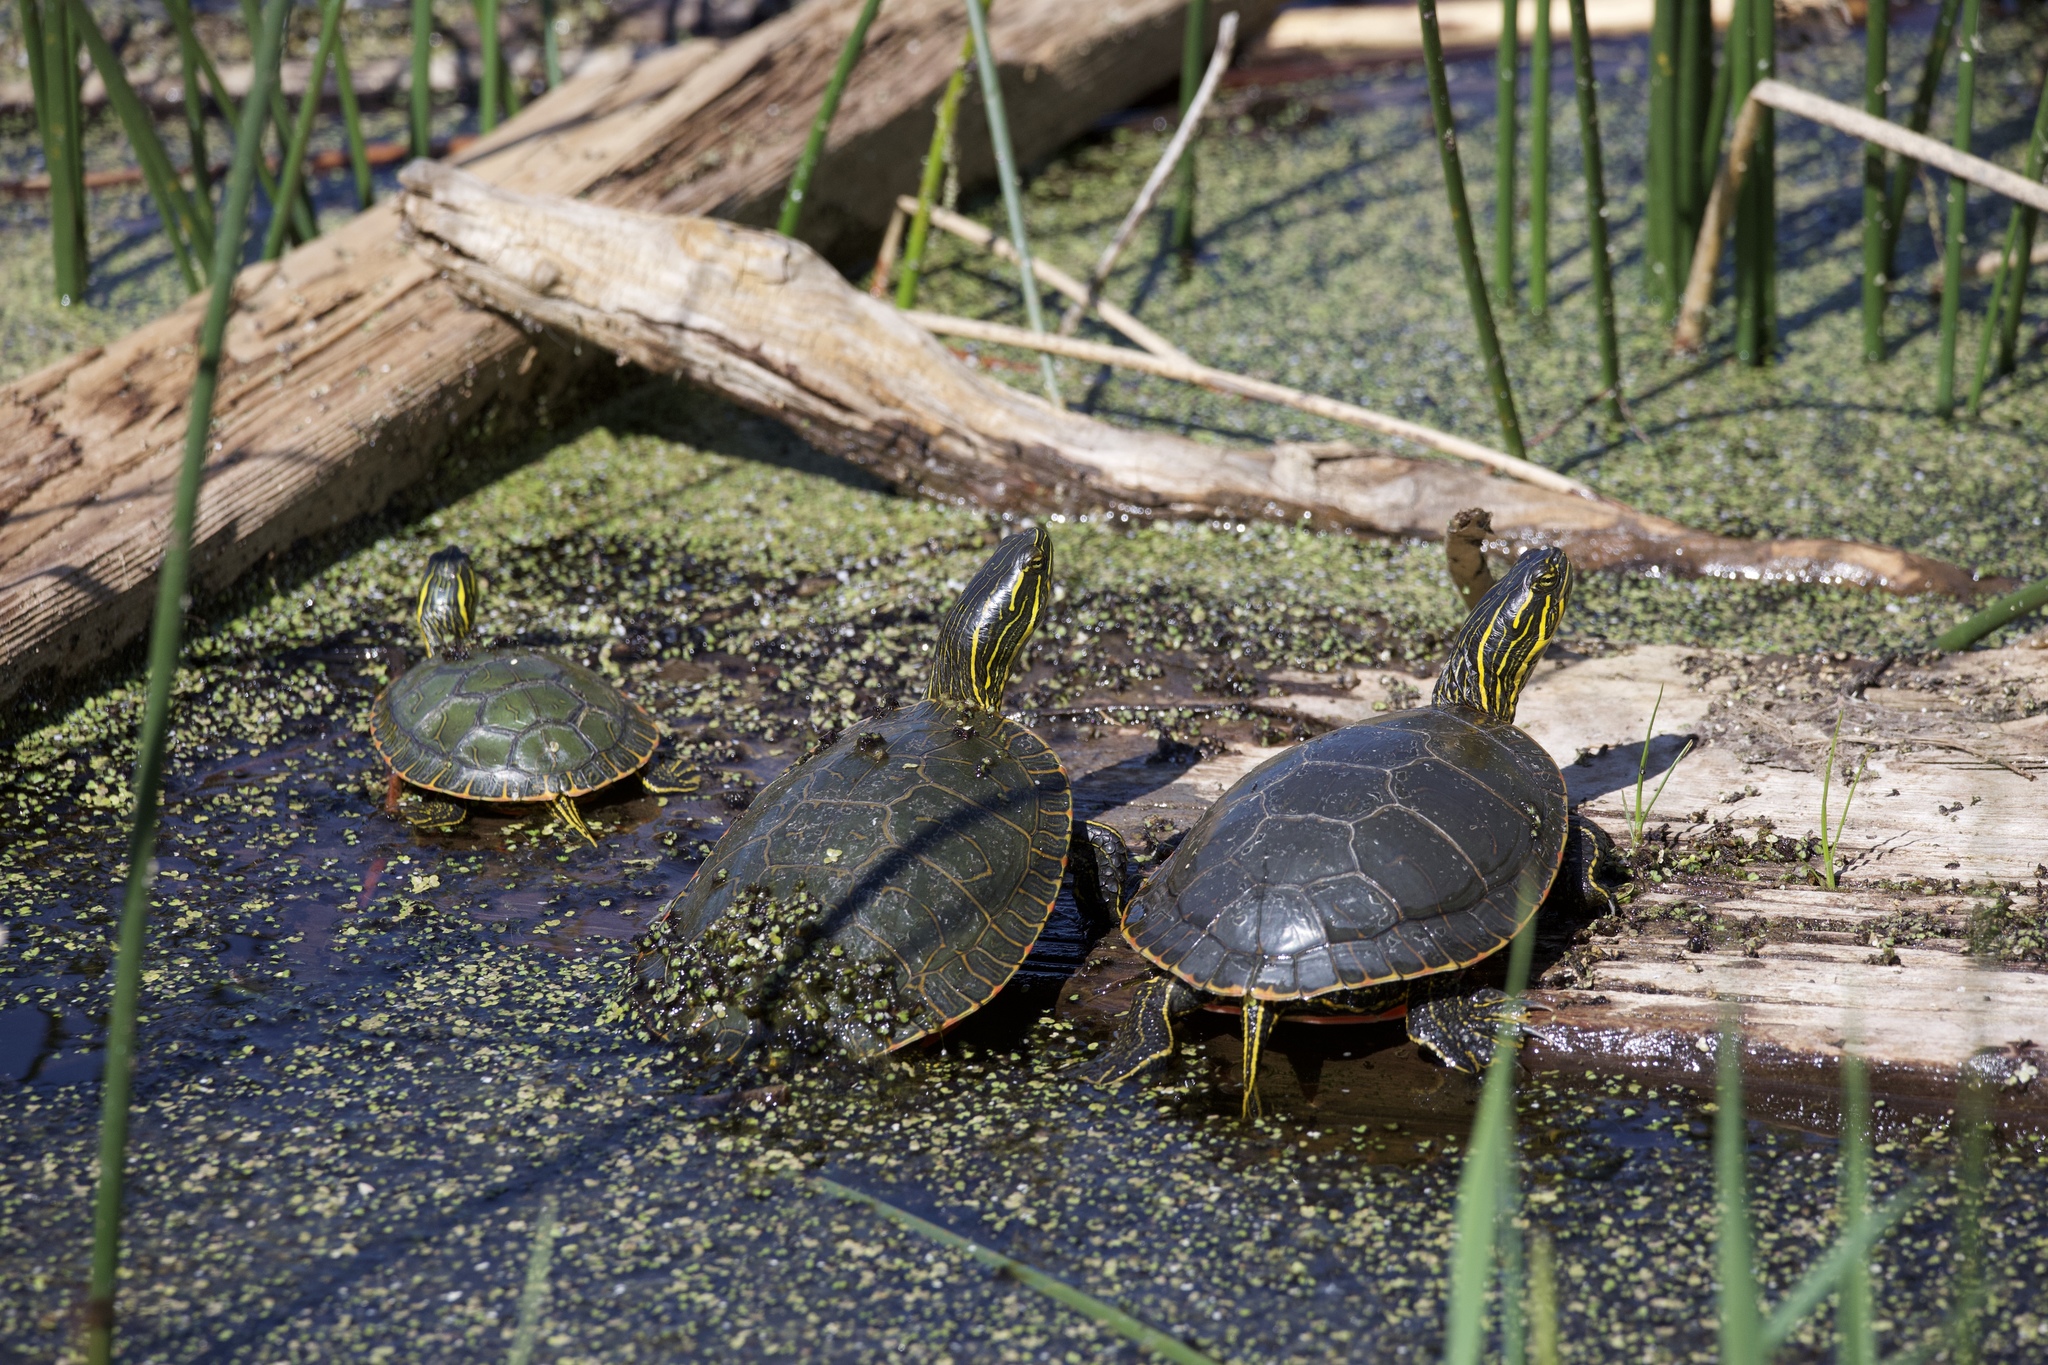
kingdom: Animalia
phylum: Chordata
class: Testudines
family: Emydidae
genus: Chrysemys
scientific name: Chrysemys picta
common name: Painted turtle
